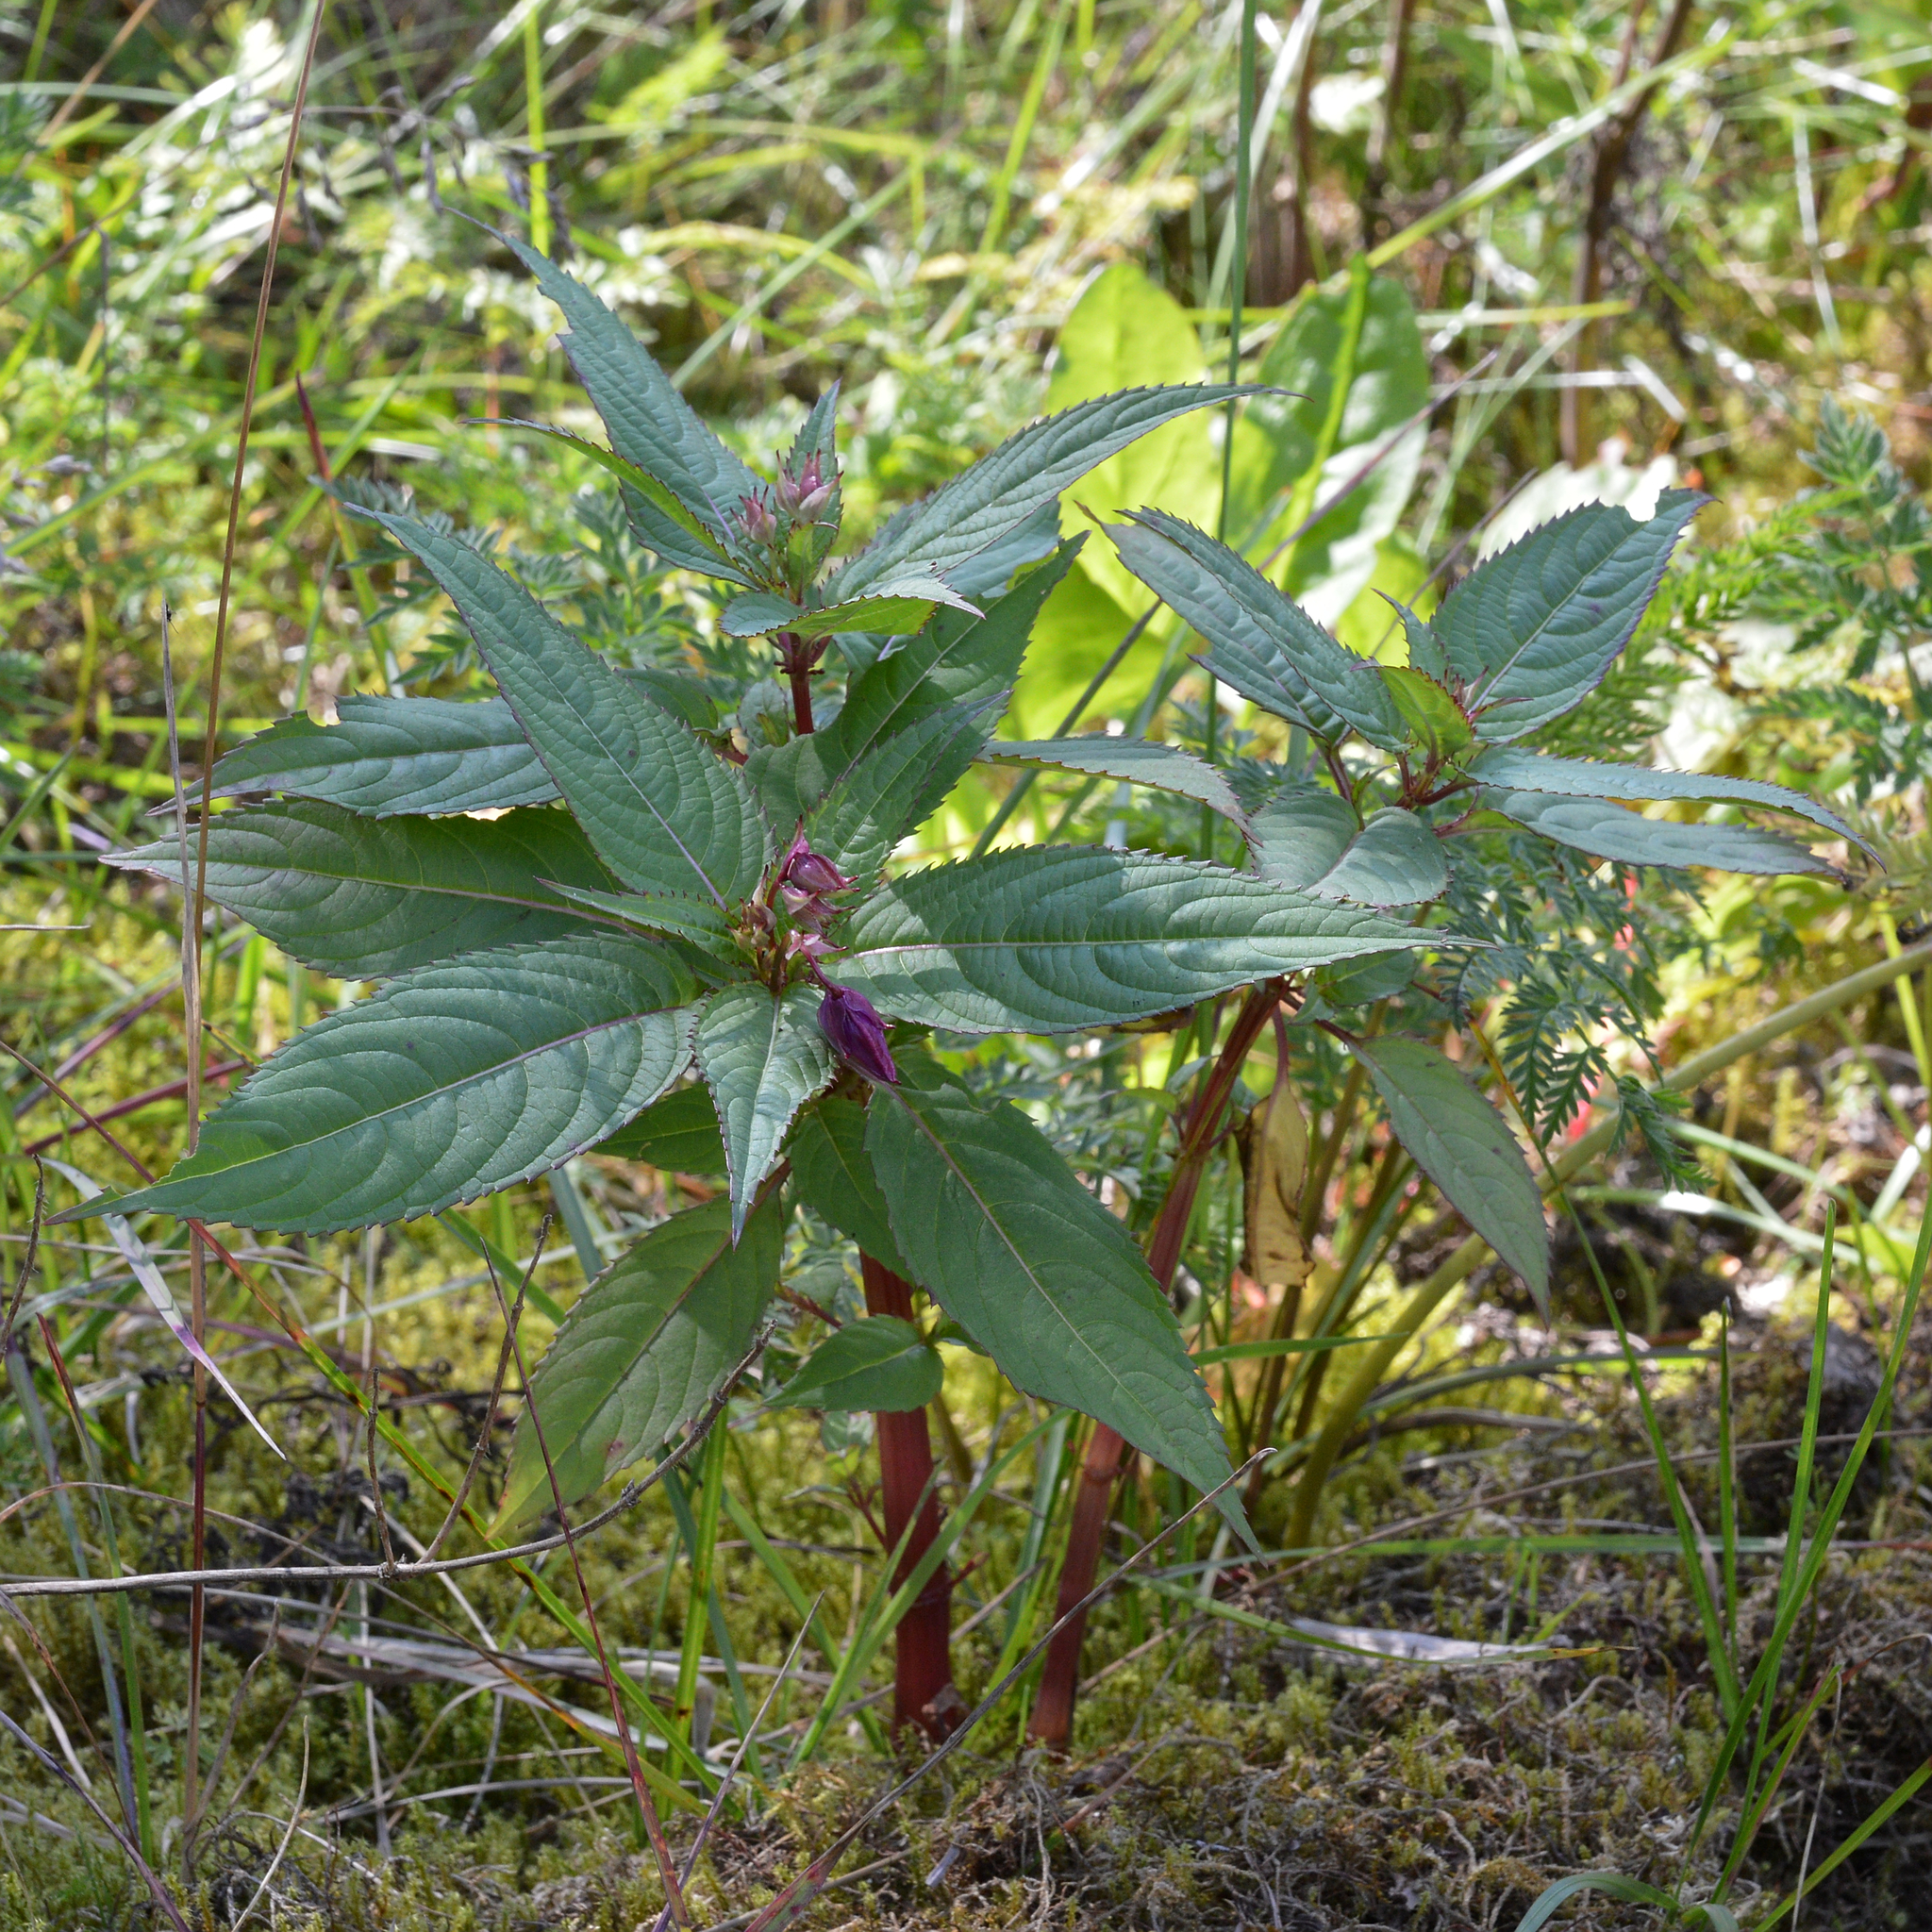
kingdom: Plantae
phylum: Tracheophyta
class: Magnoliopsida
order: Ericales
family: Balsaminaceae
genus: Impatiens
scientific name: Impatiens glandulifera
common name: Himalayan balsam
